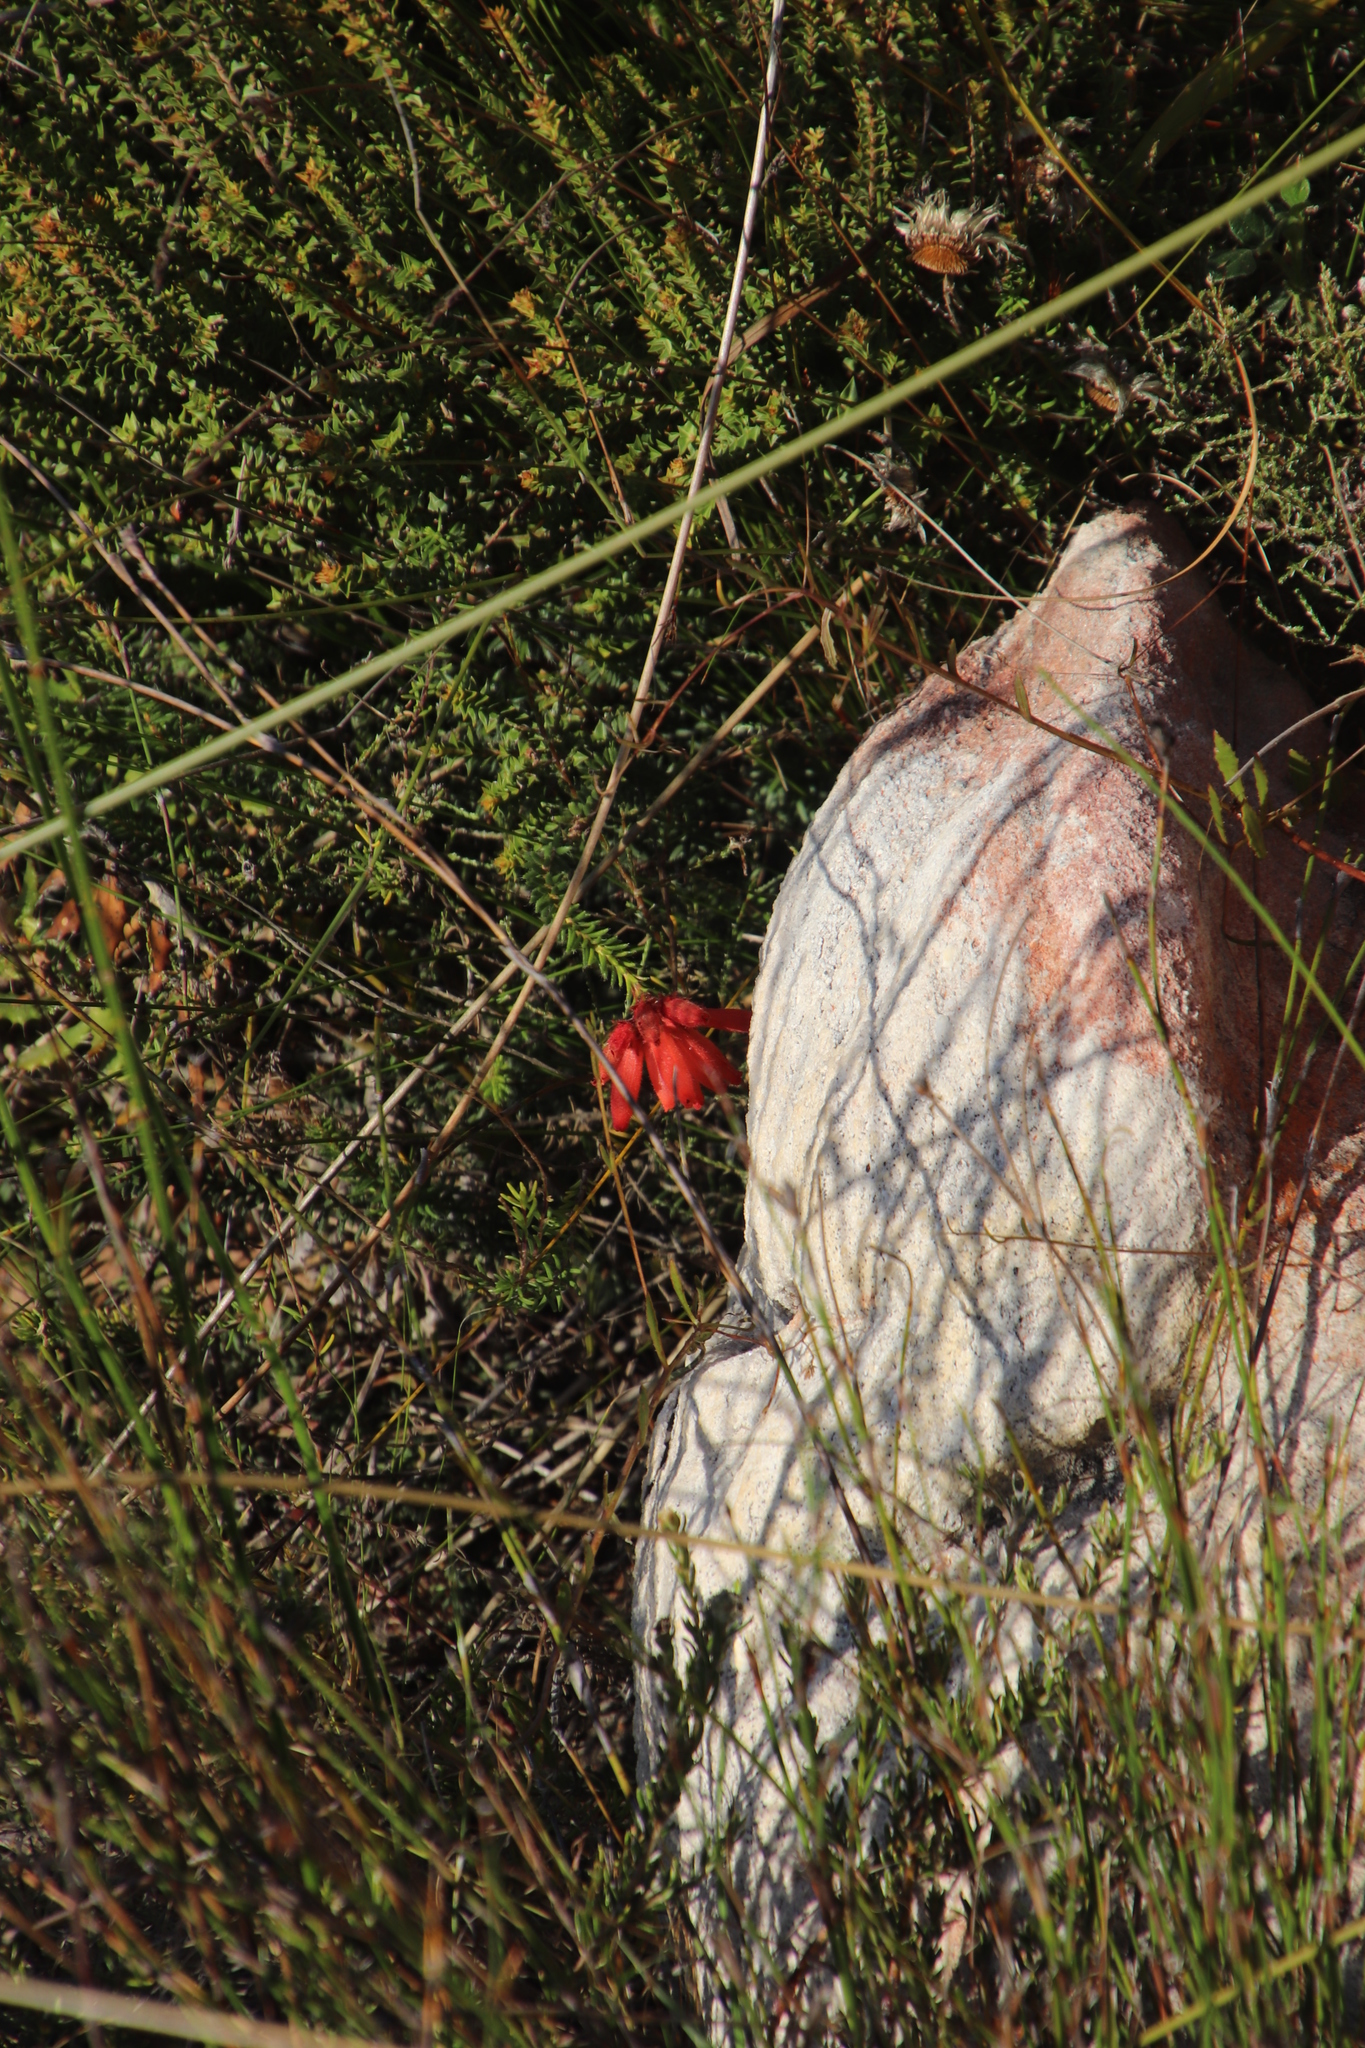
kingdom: Plantae
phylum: Tracheophyta
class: Magnoliopsida
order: Ericales
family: Ericaceae
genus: Erica
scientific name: Erica cerinthoides
